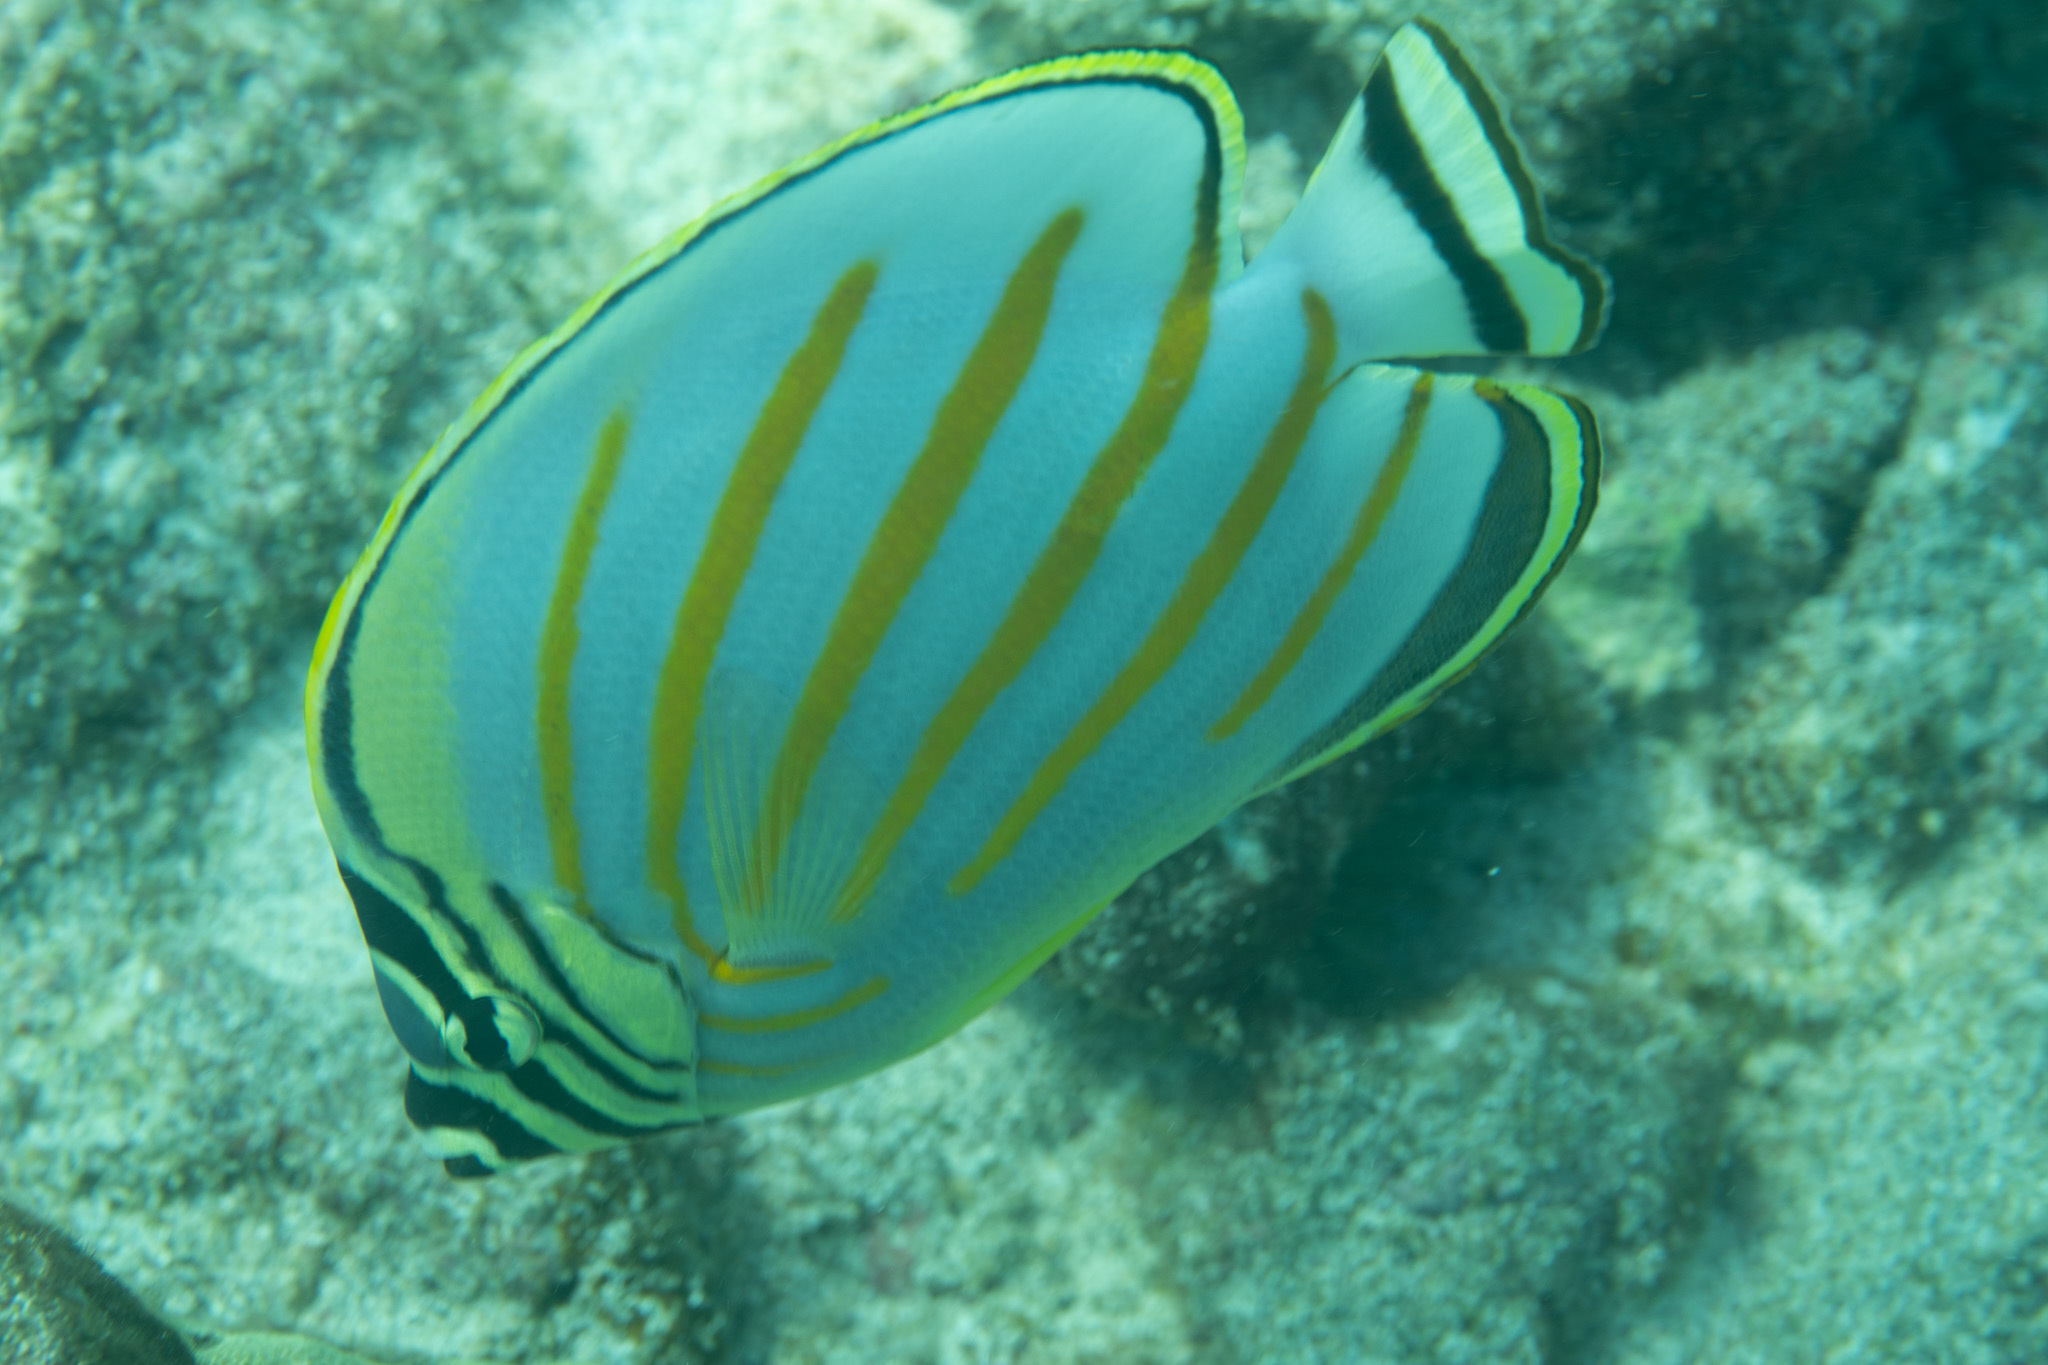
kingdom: Animalia
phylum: Chordata
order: Perciformes
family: Chaetodontidae
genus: Chaetodon
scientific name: Chaetodon ornatissimus
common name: Ornate butterflyfish
